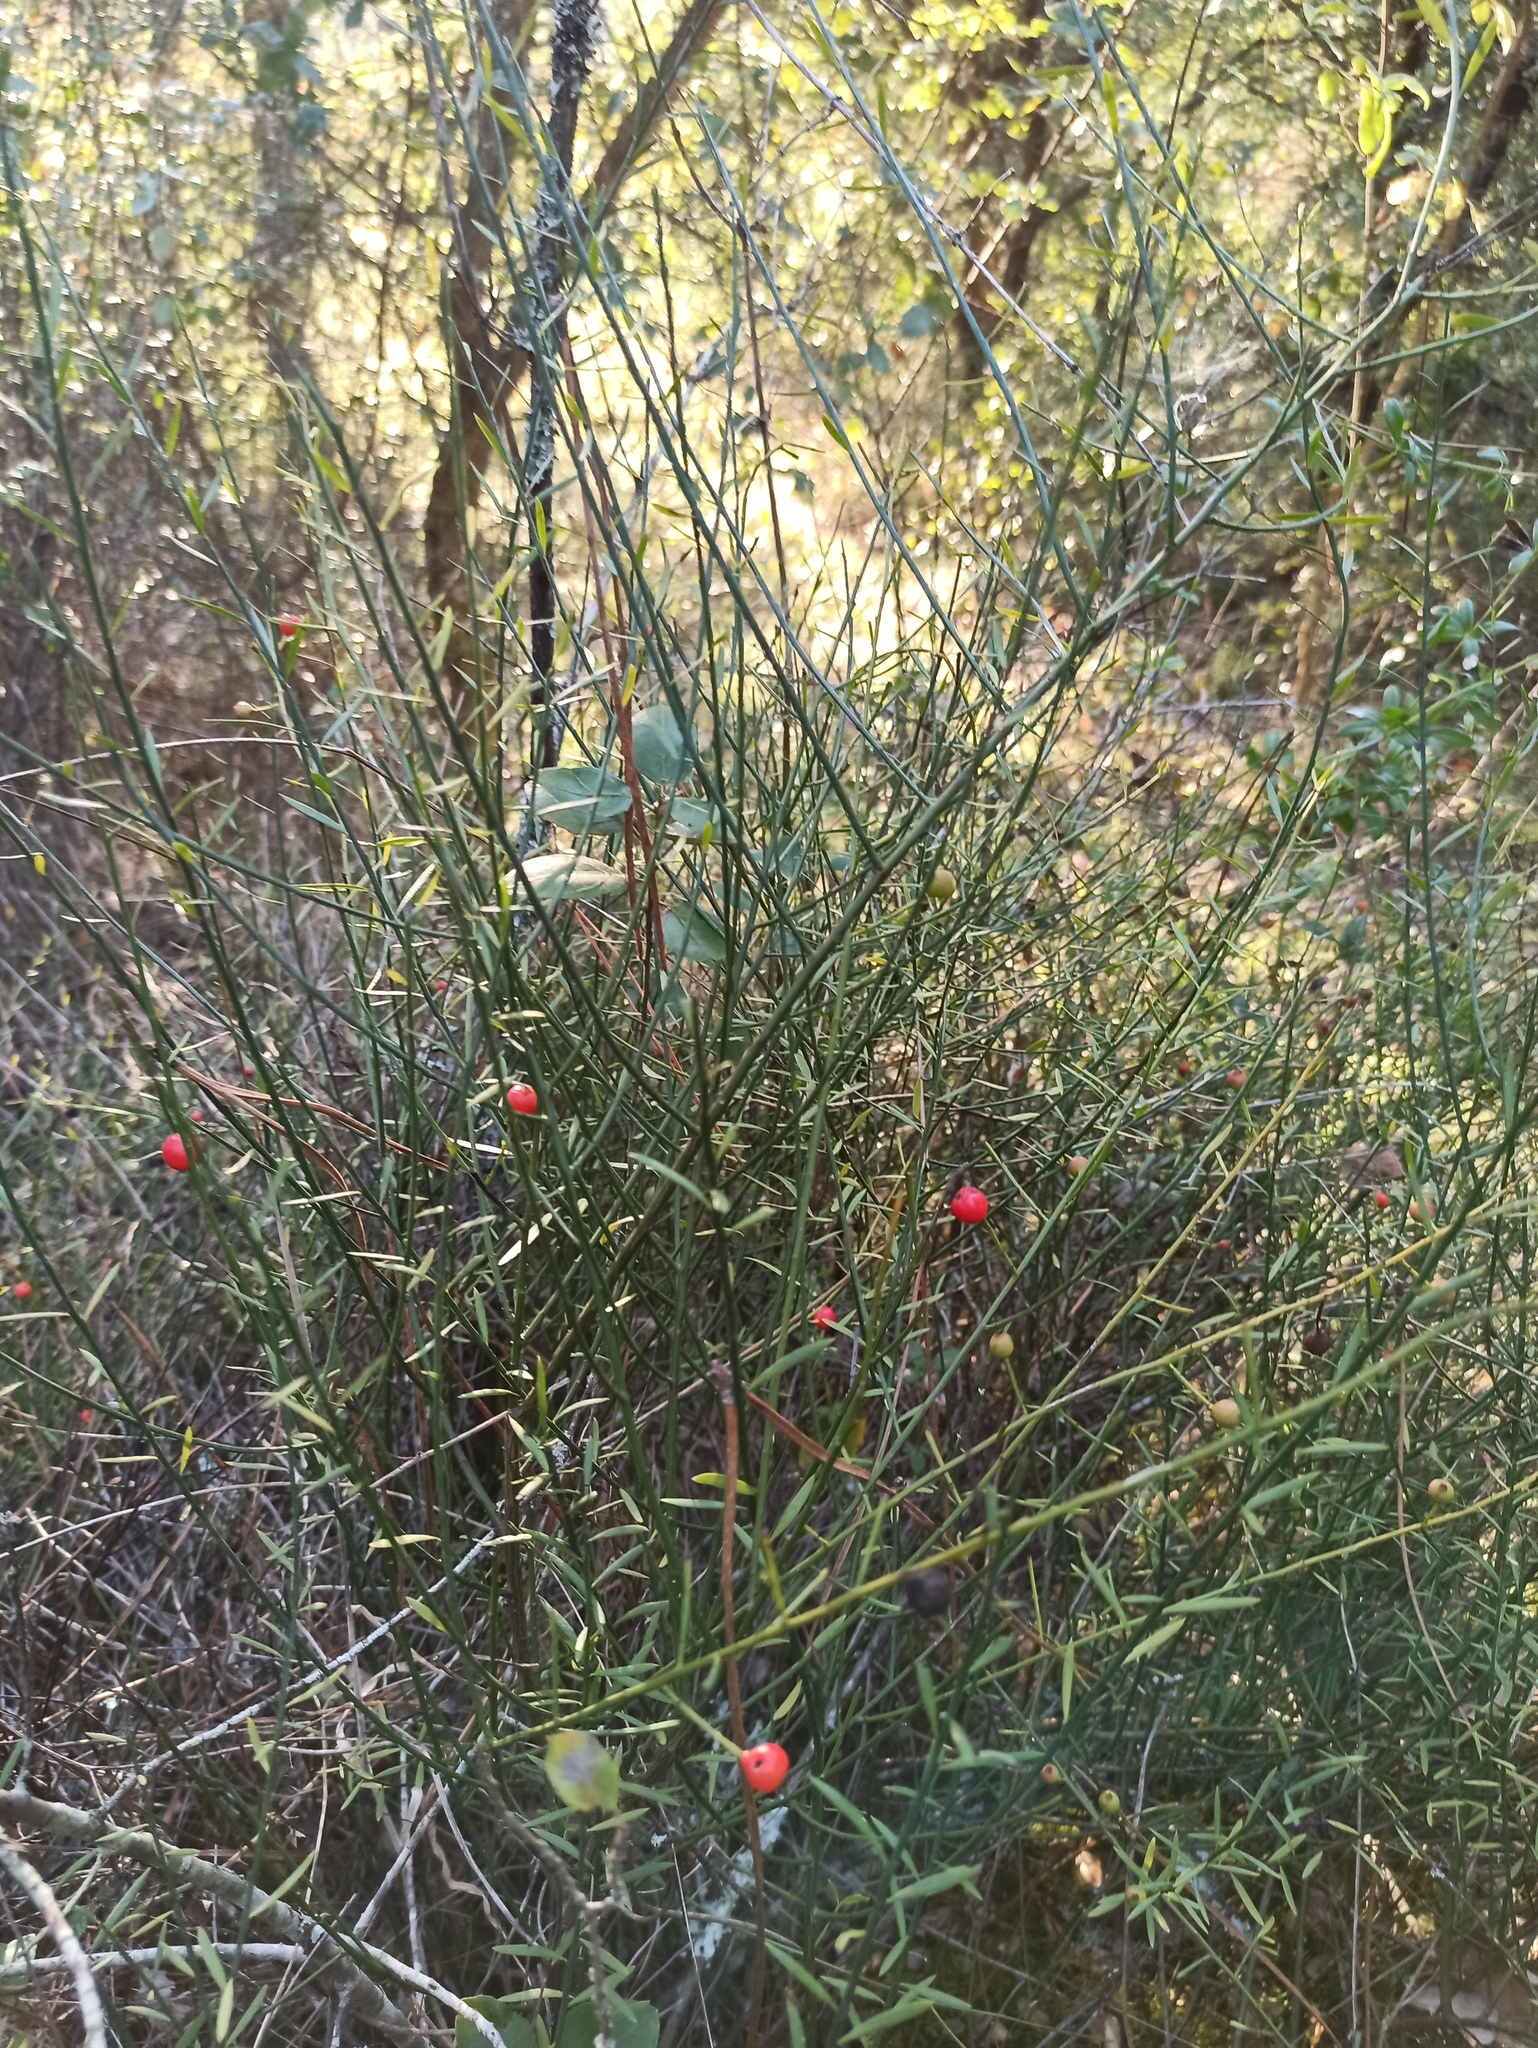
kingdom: Plantae
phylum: Tracheophyta
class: Magnoliopsida
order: Santalales
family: Santalaceae
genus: Osyris
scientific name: Osyris alba
